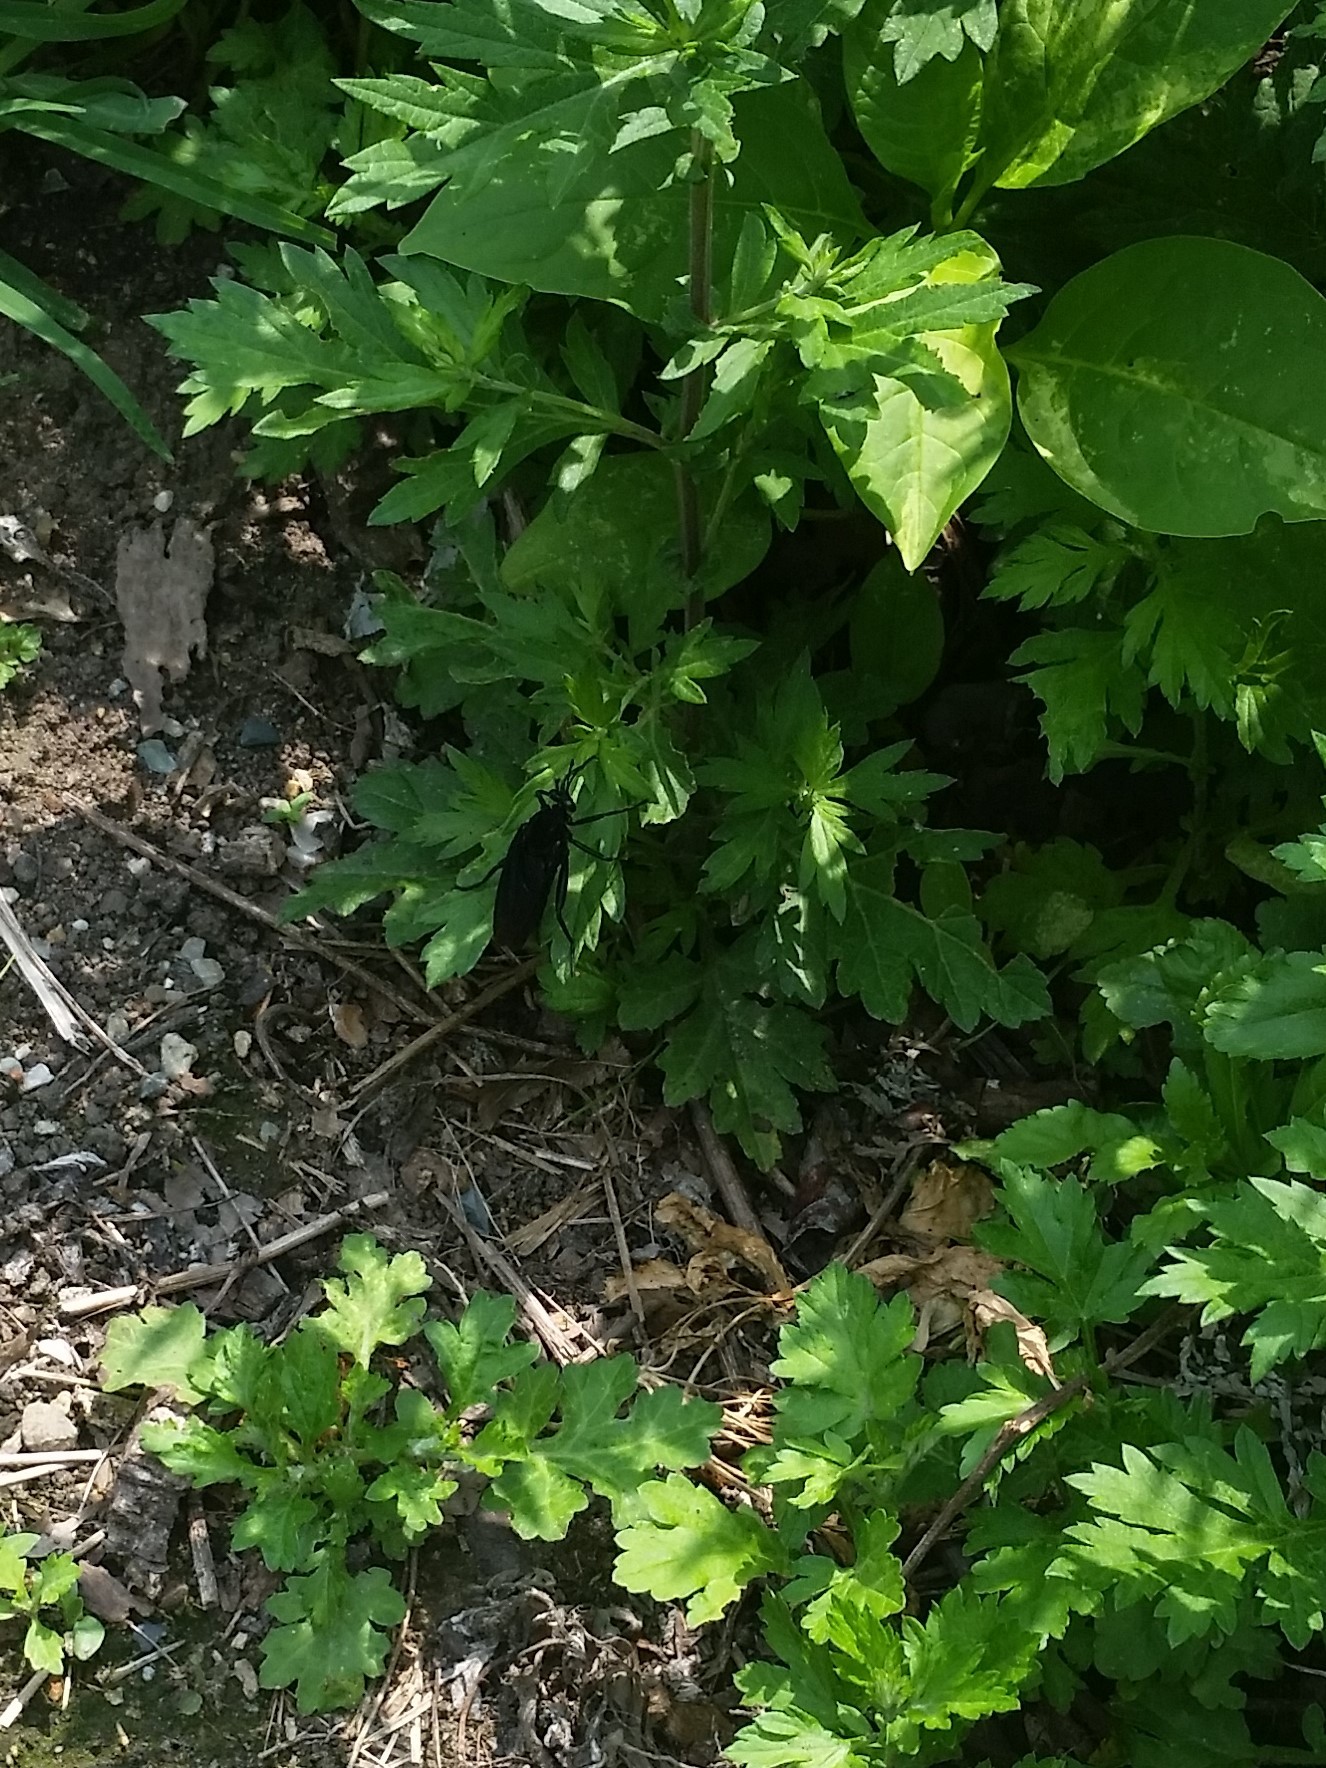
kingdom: Animalia
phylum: Arthropoda
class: Insecta
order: Diptera
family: Mydidae
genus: Mydas
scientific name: Mydas clavatus
